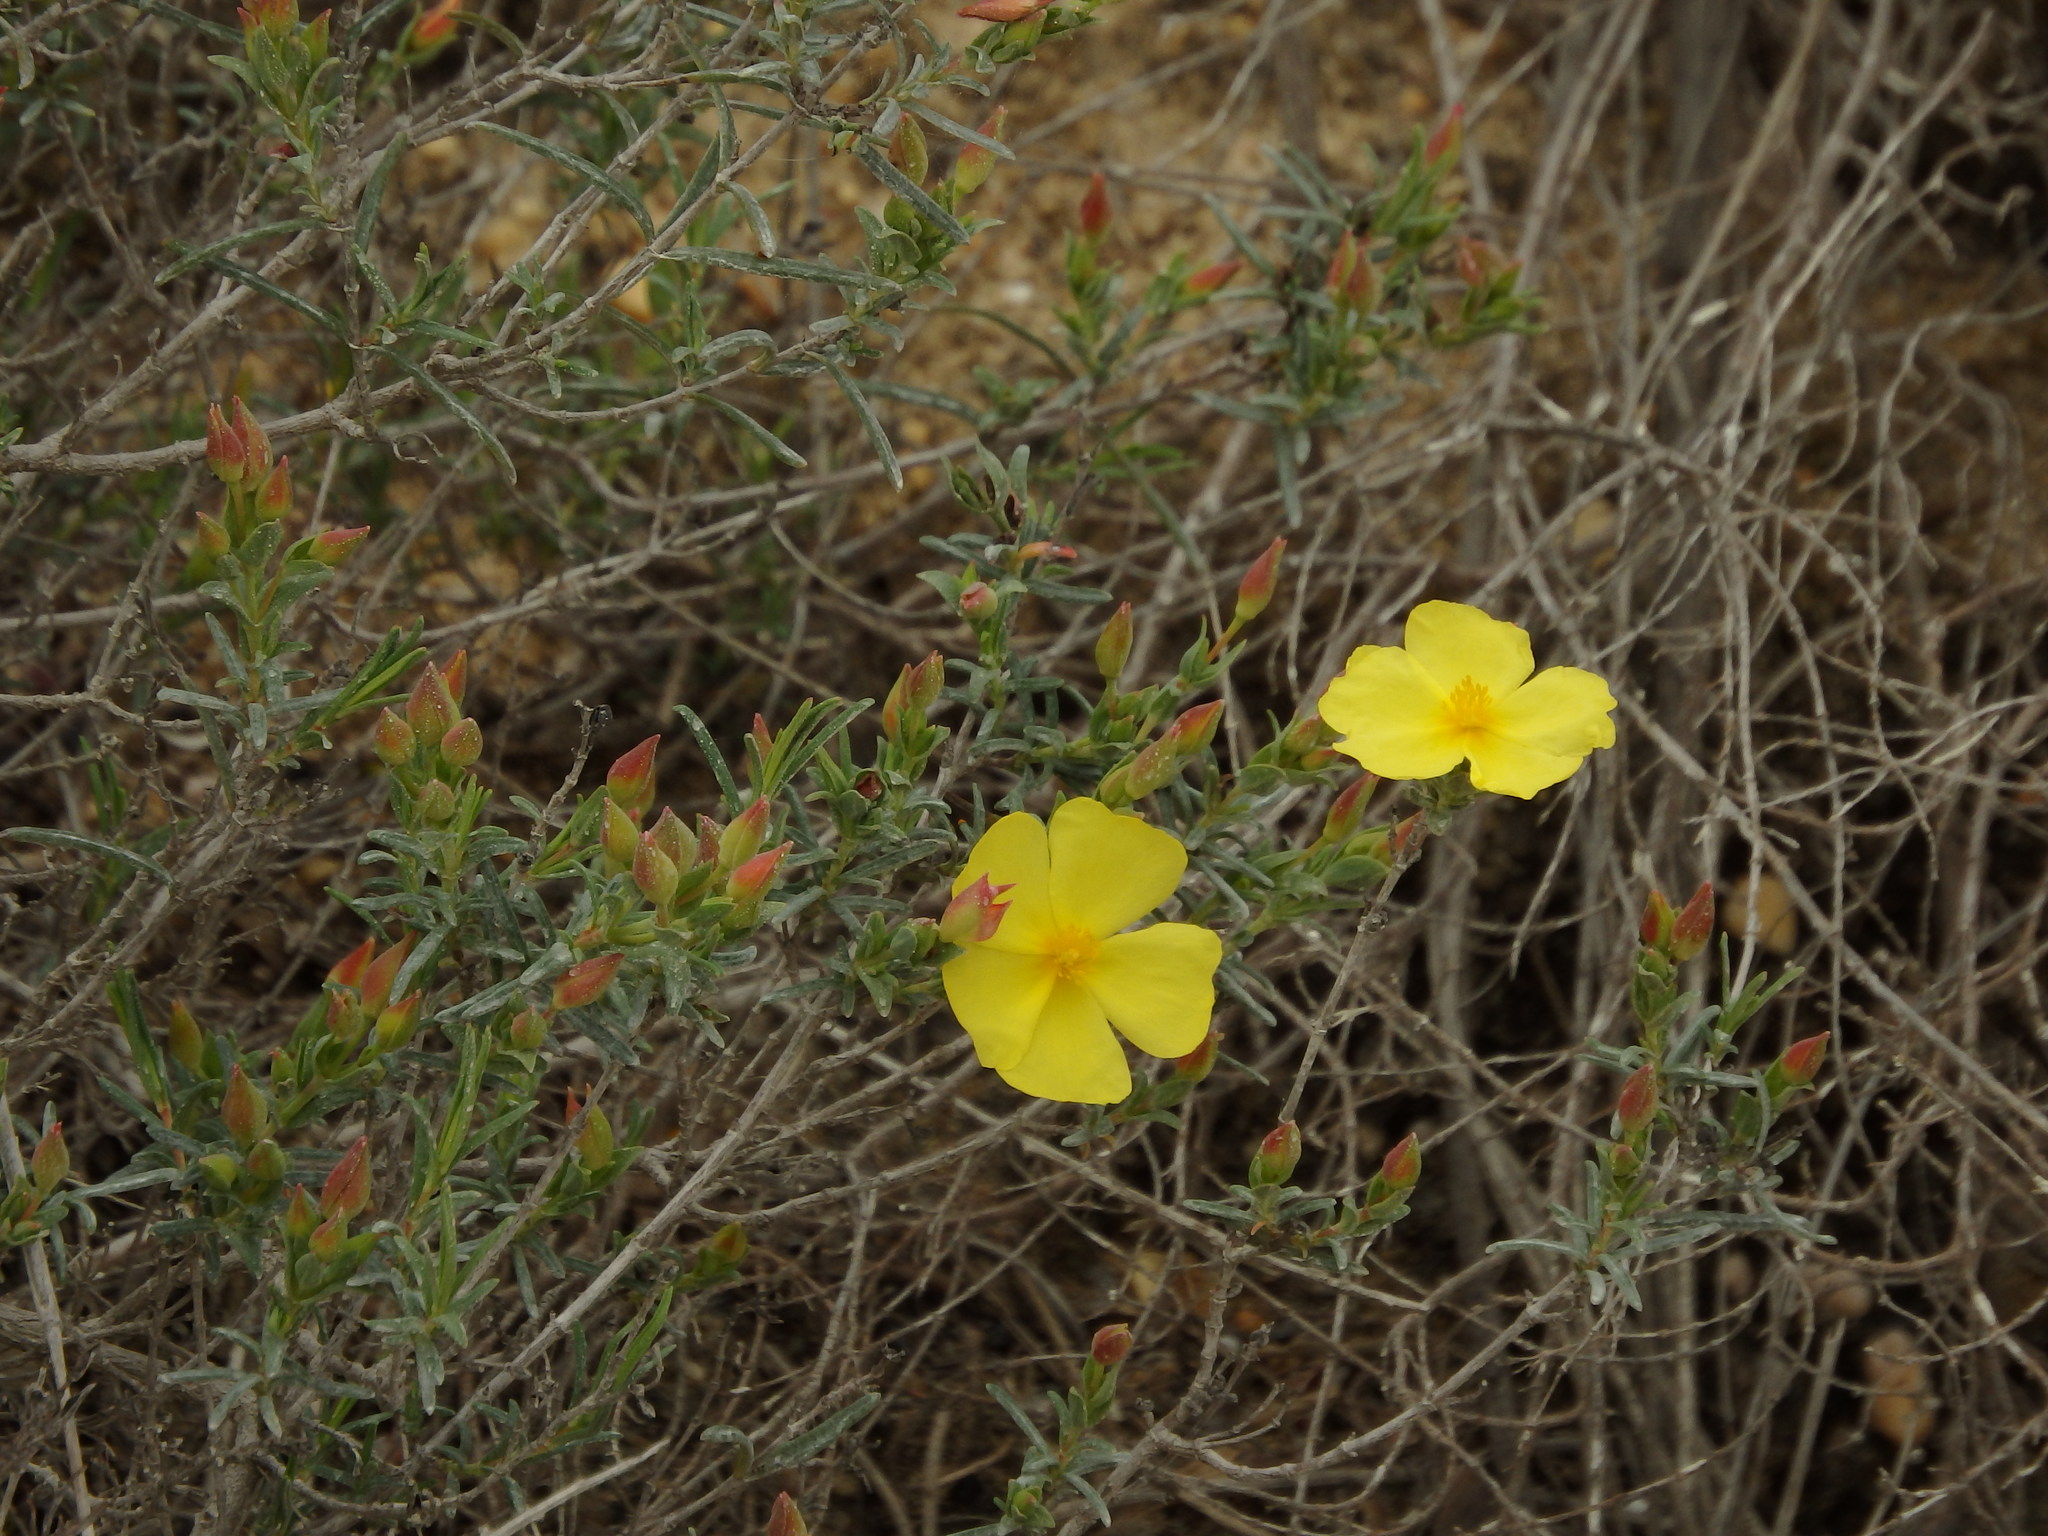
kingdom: Plantae
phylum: Tracheophyta
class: Magnoliopsida
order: Malvales
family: Cistaceae
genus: Halimium
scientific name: Halimium calycinum
